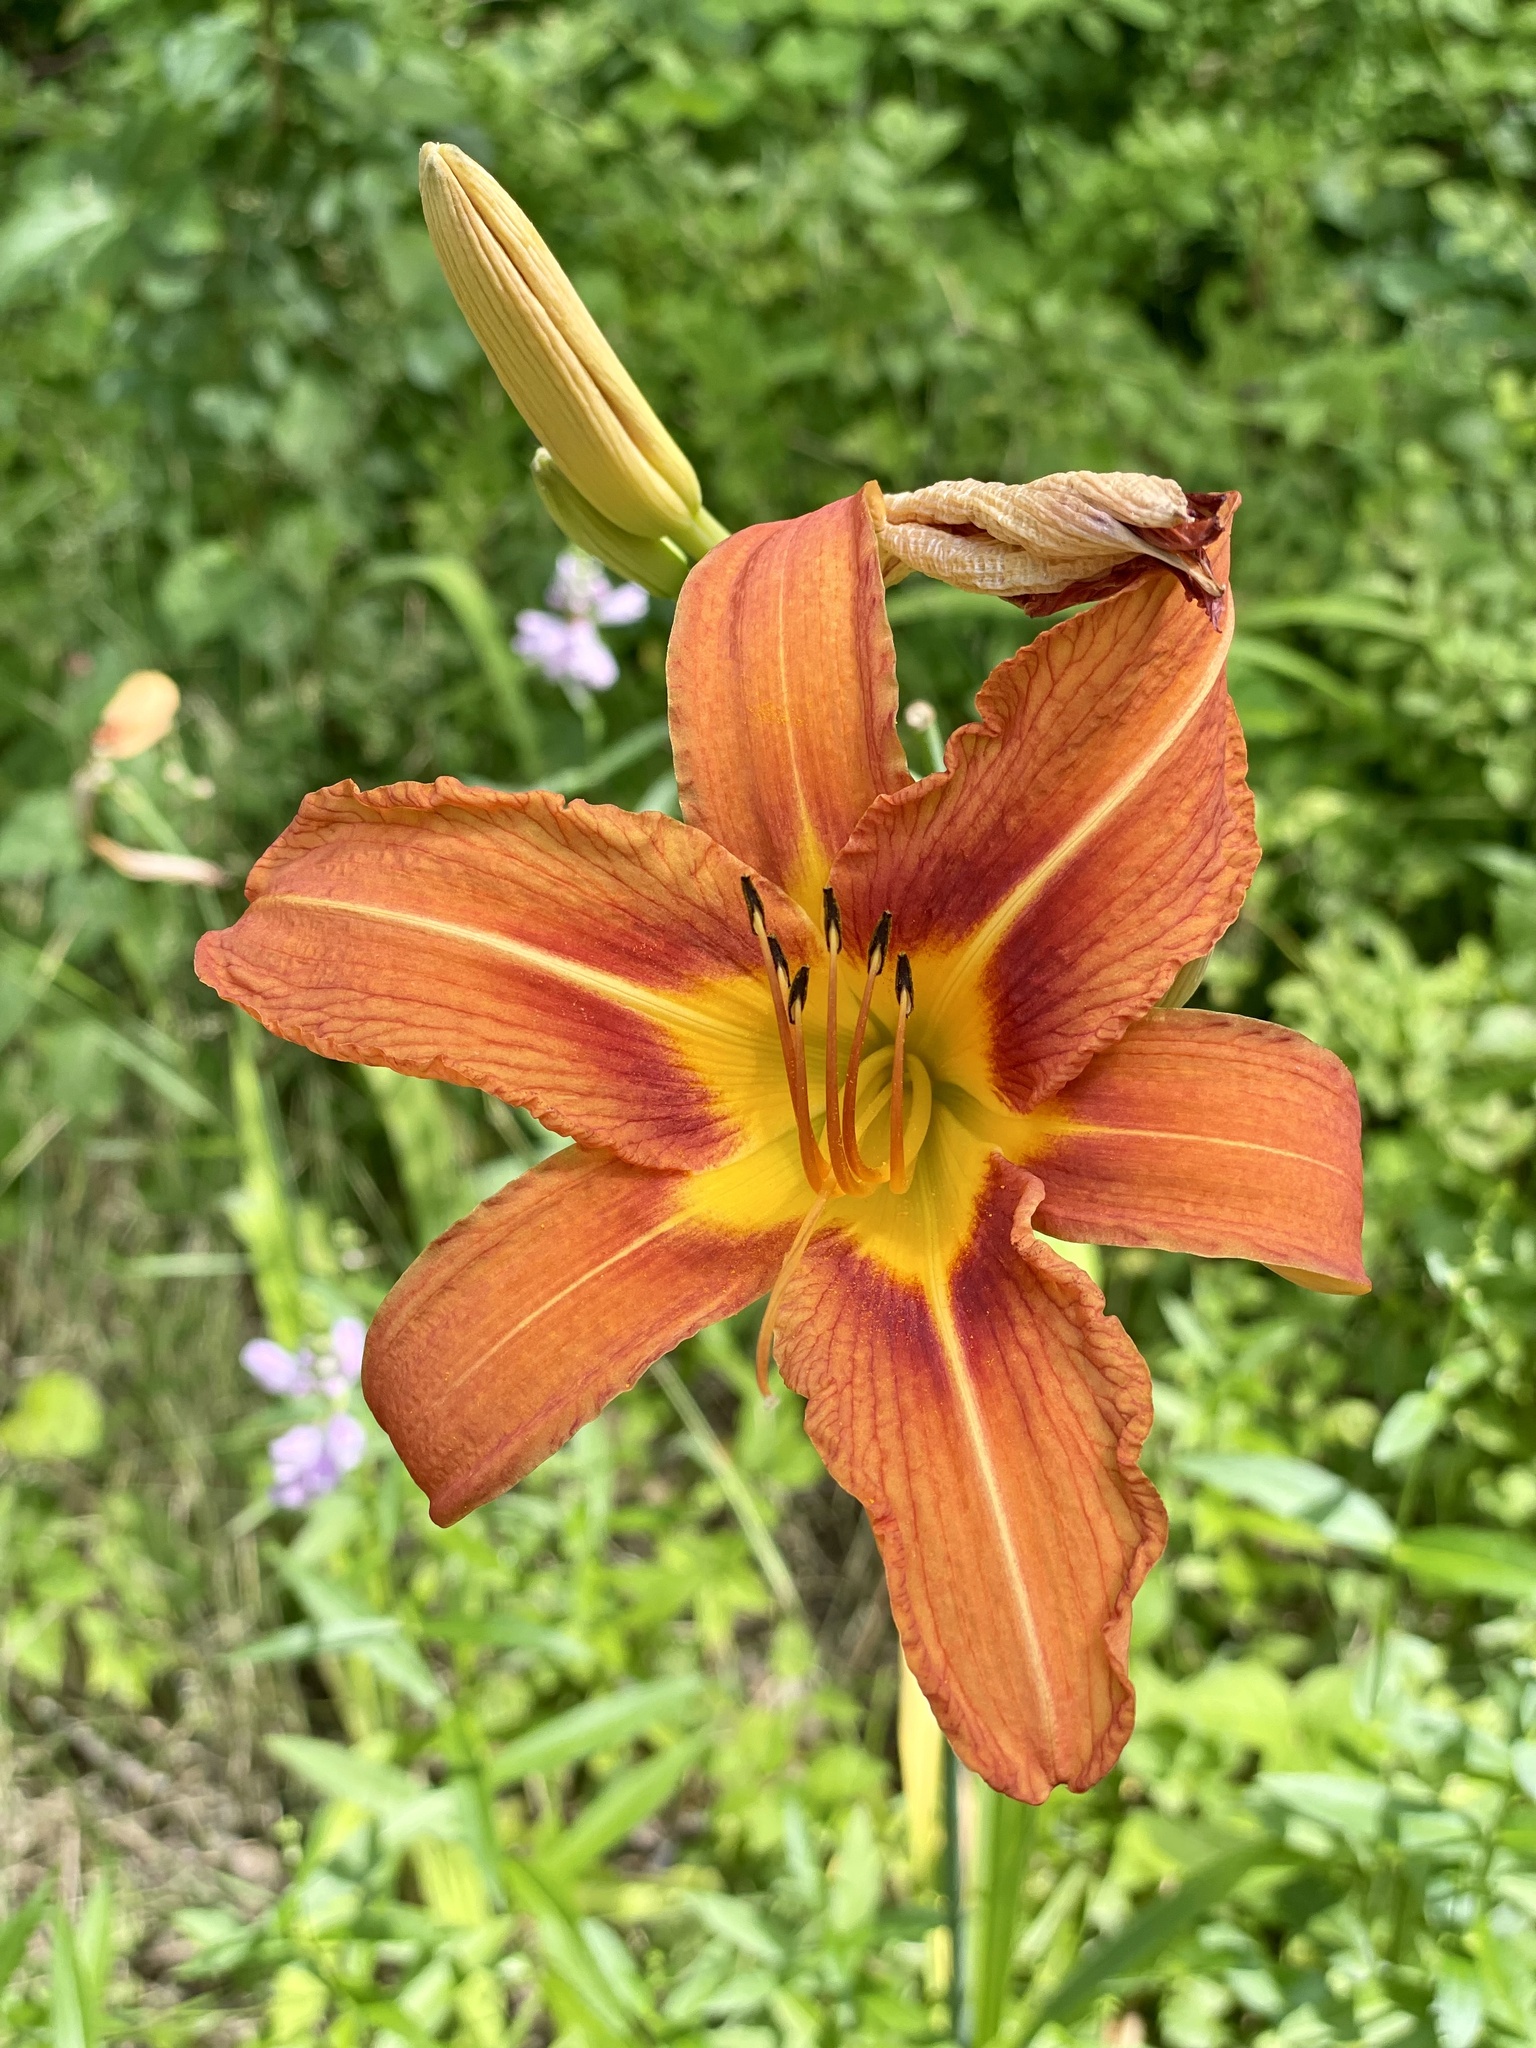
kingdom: Plantae
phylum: Tracheophyta
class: Liliopsida
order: Asparagales
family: Asphodelaceae
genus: Hemerocallis
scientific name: Hemerocallis fulva
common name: Orange day-lily
